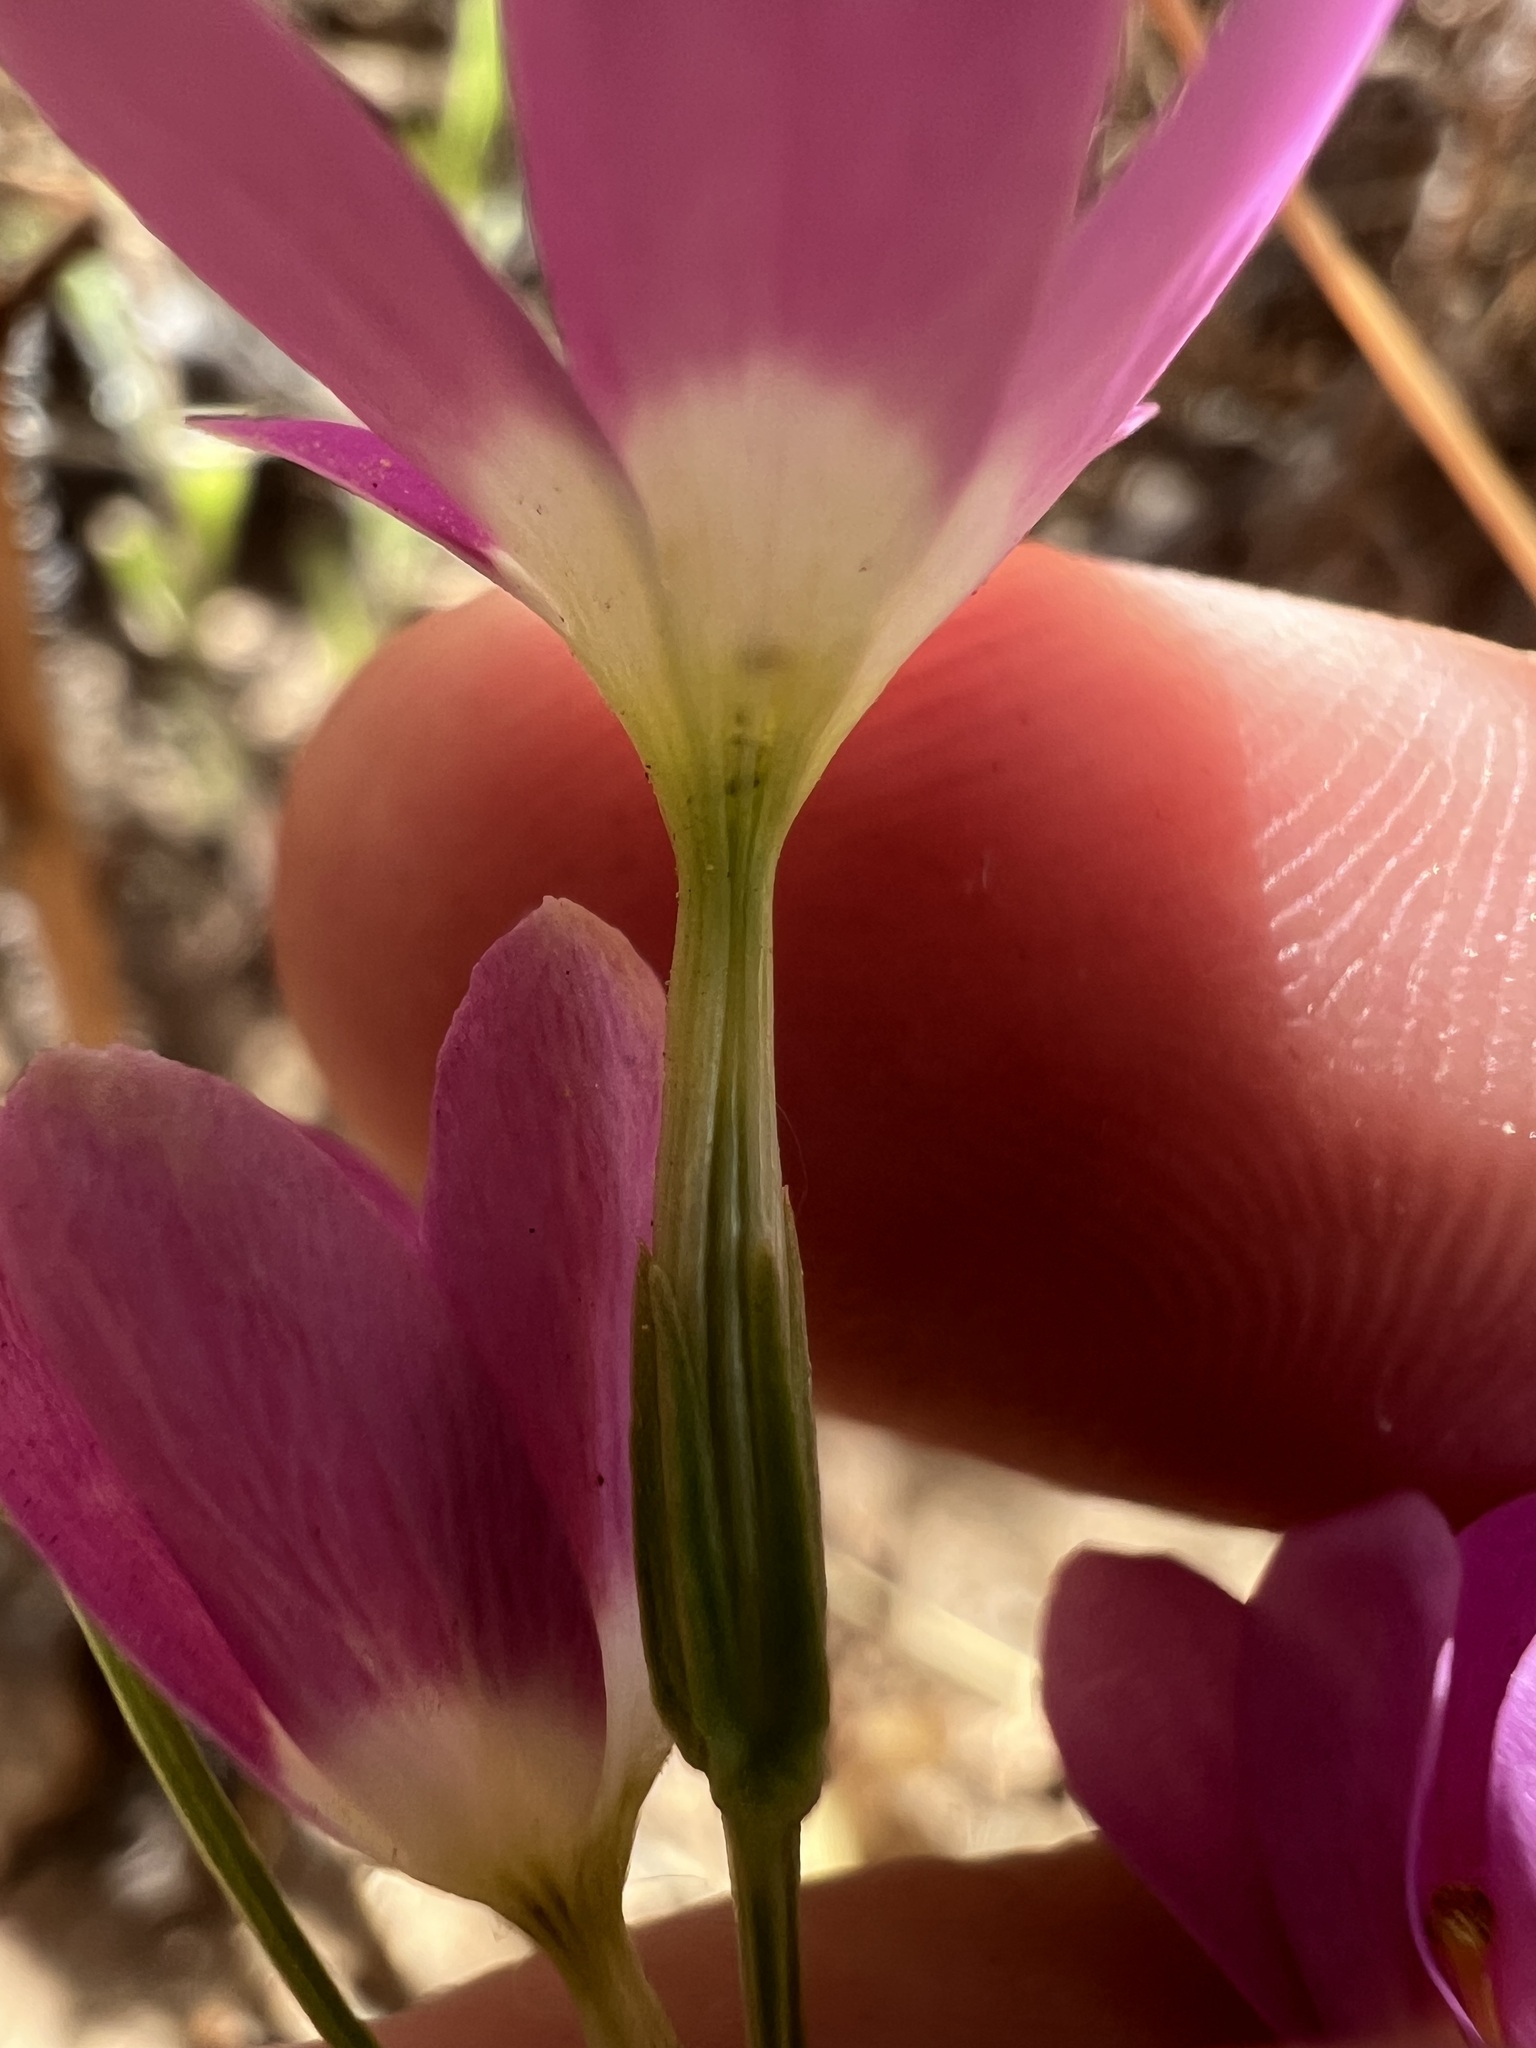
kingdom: Plantae
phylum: Tracheophyta
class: Magnoliopsida
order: Gentianales
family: Gentianaceae
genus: Zeltnera
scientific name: Zeltnera venusta
